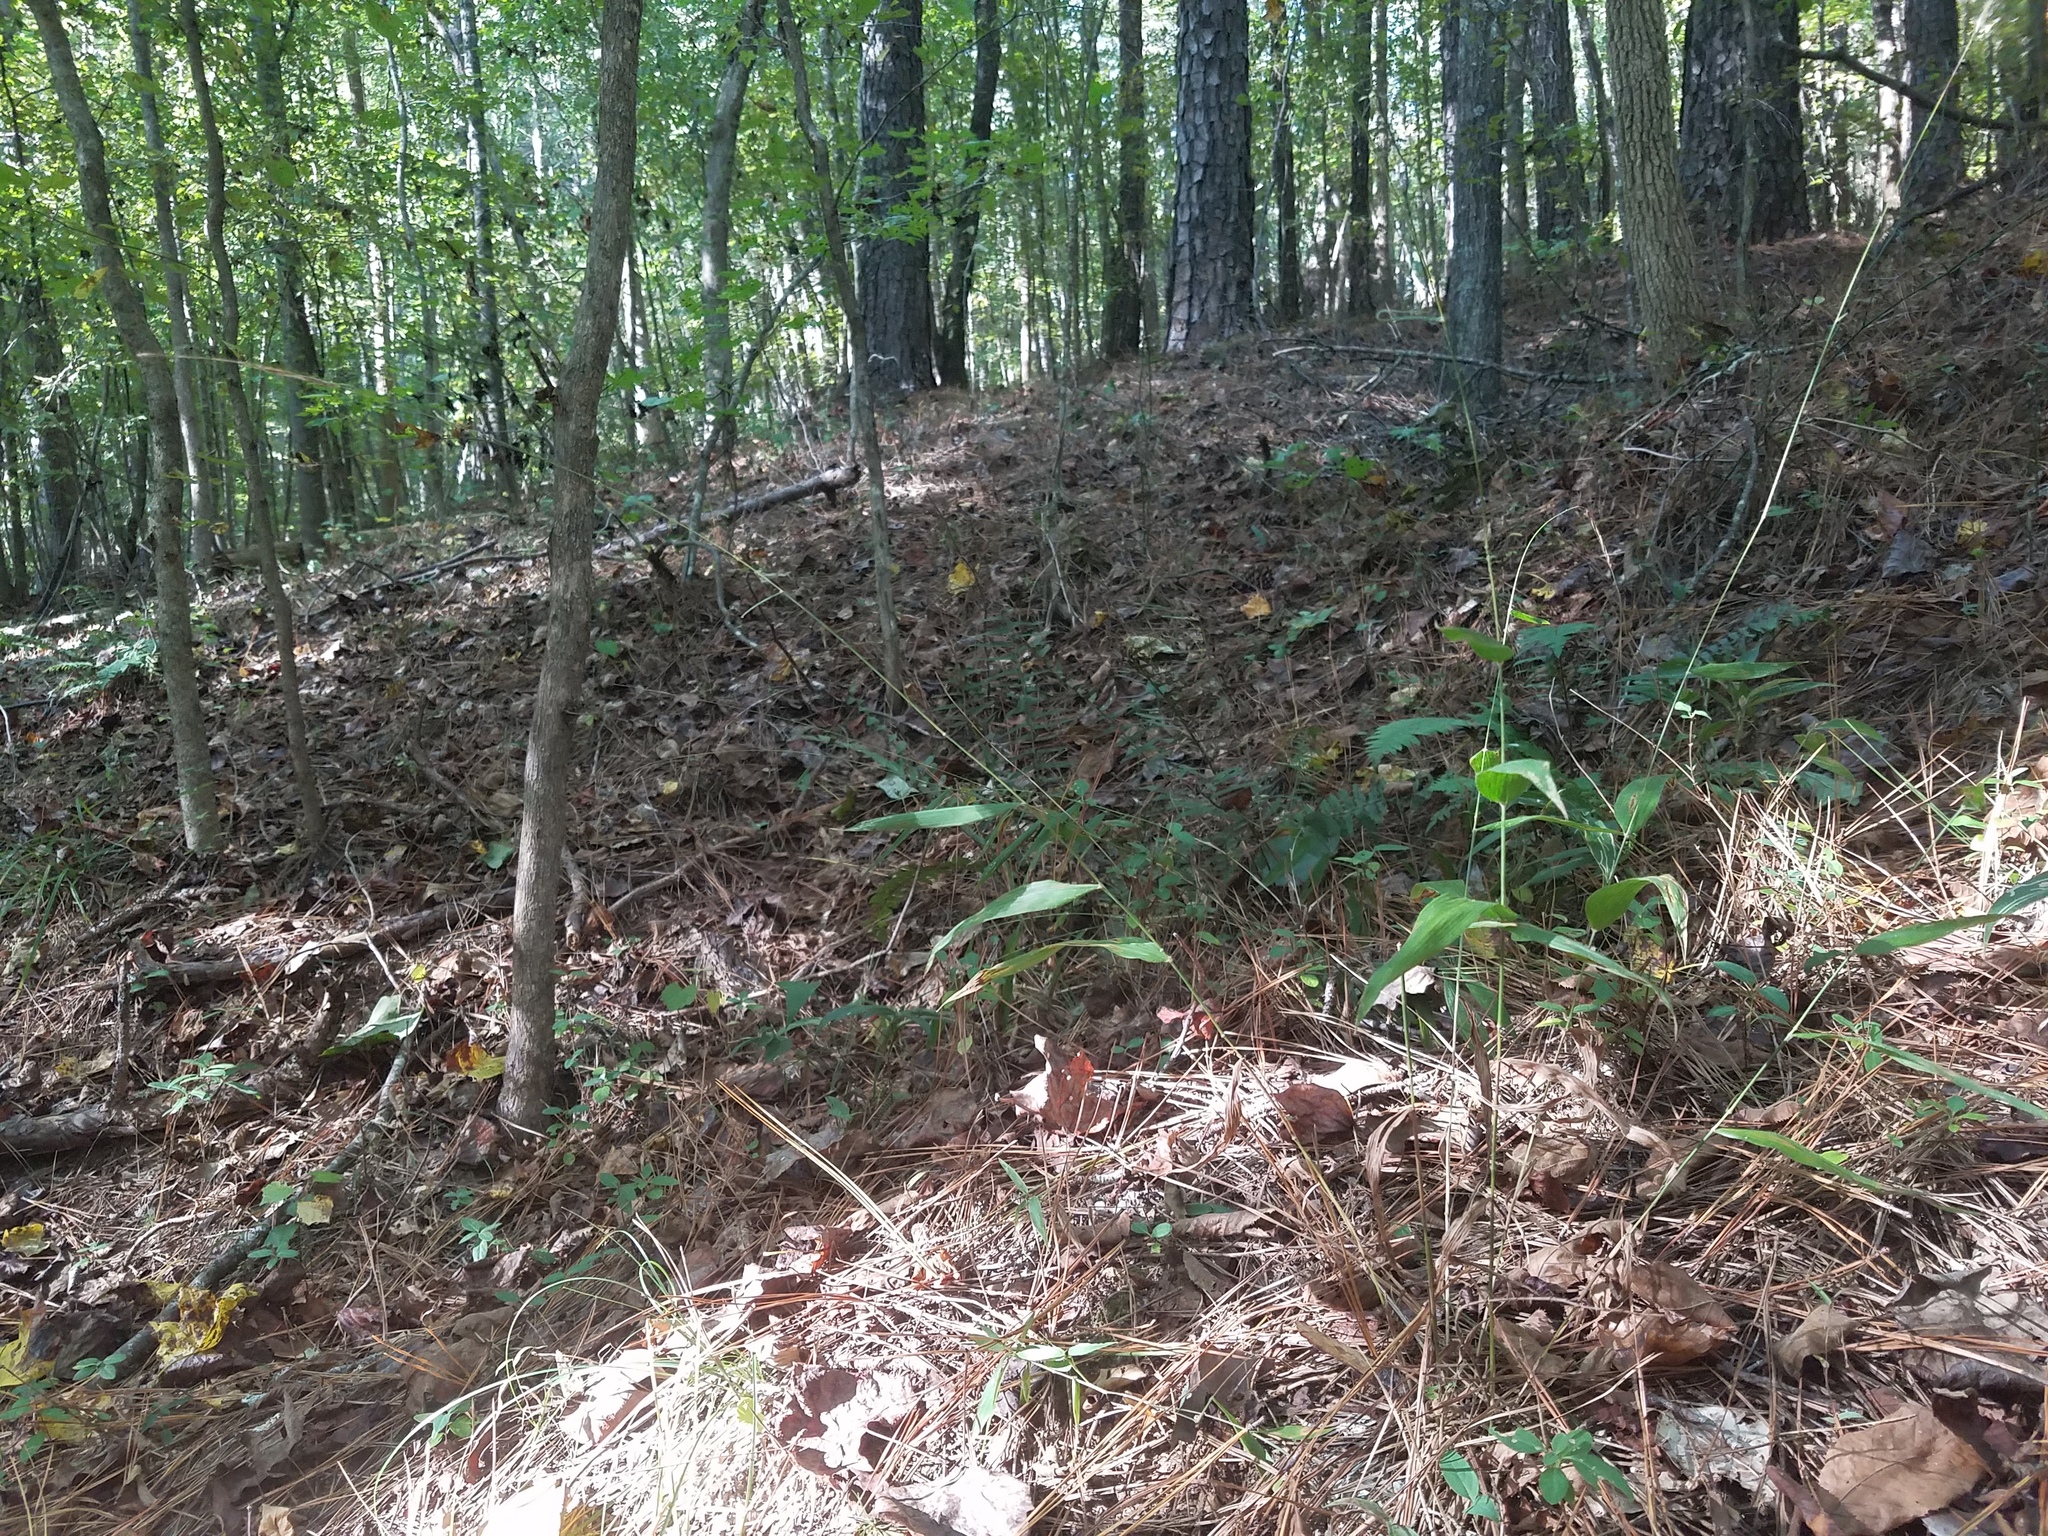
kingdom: Plantae
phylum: Tracheophyta
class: Liliopsida
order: Poales
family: Poaceae
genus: Brachyelytrum
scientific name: Brachyelytrum erectum
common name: Bearded shorthusk
